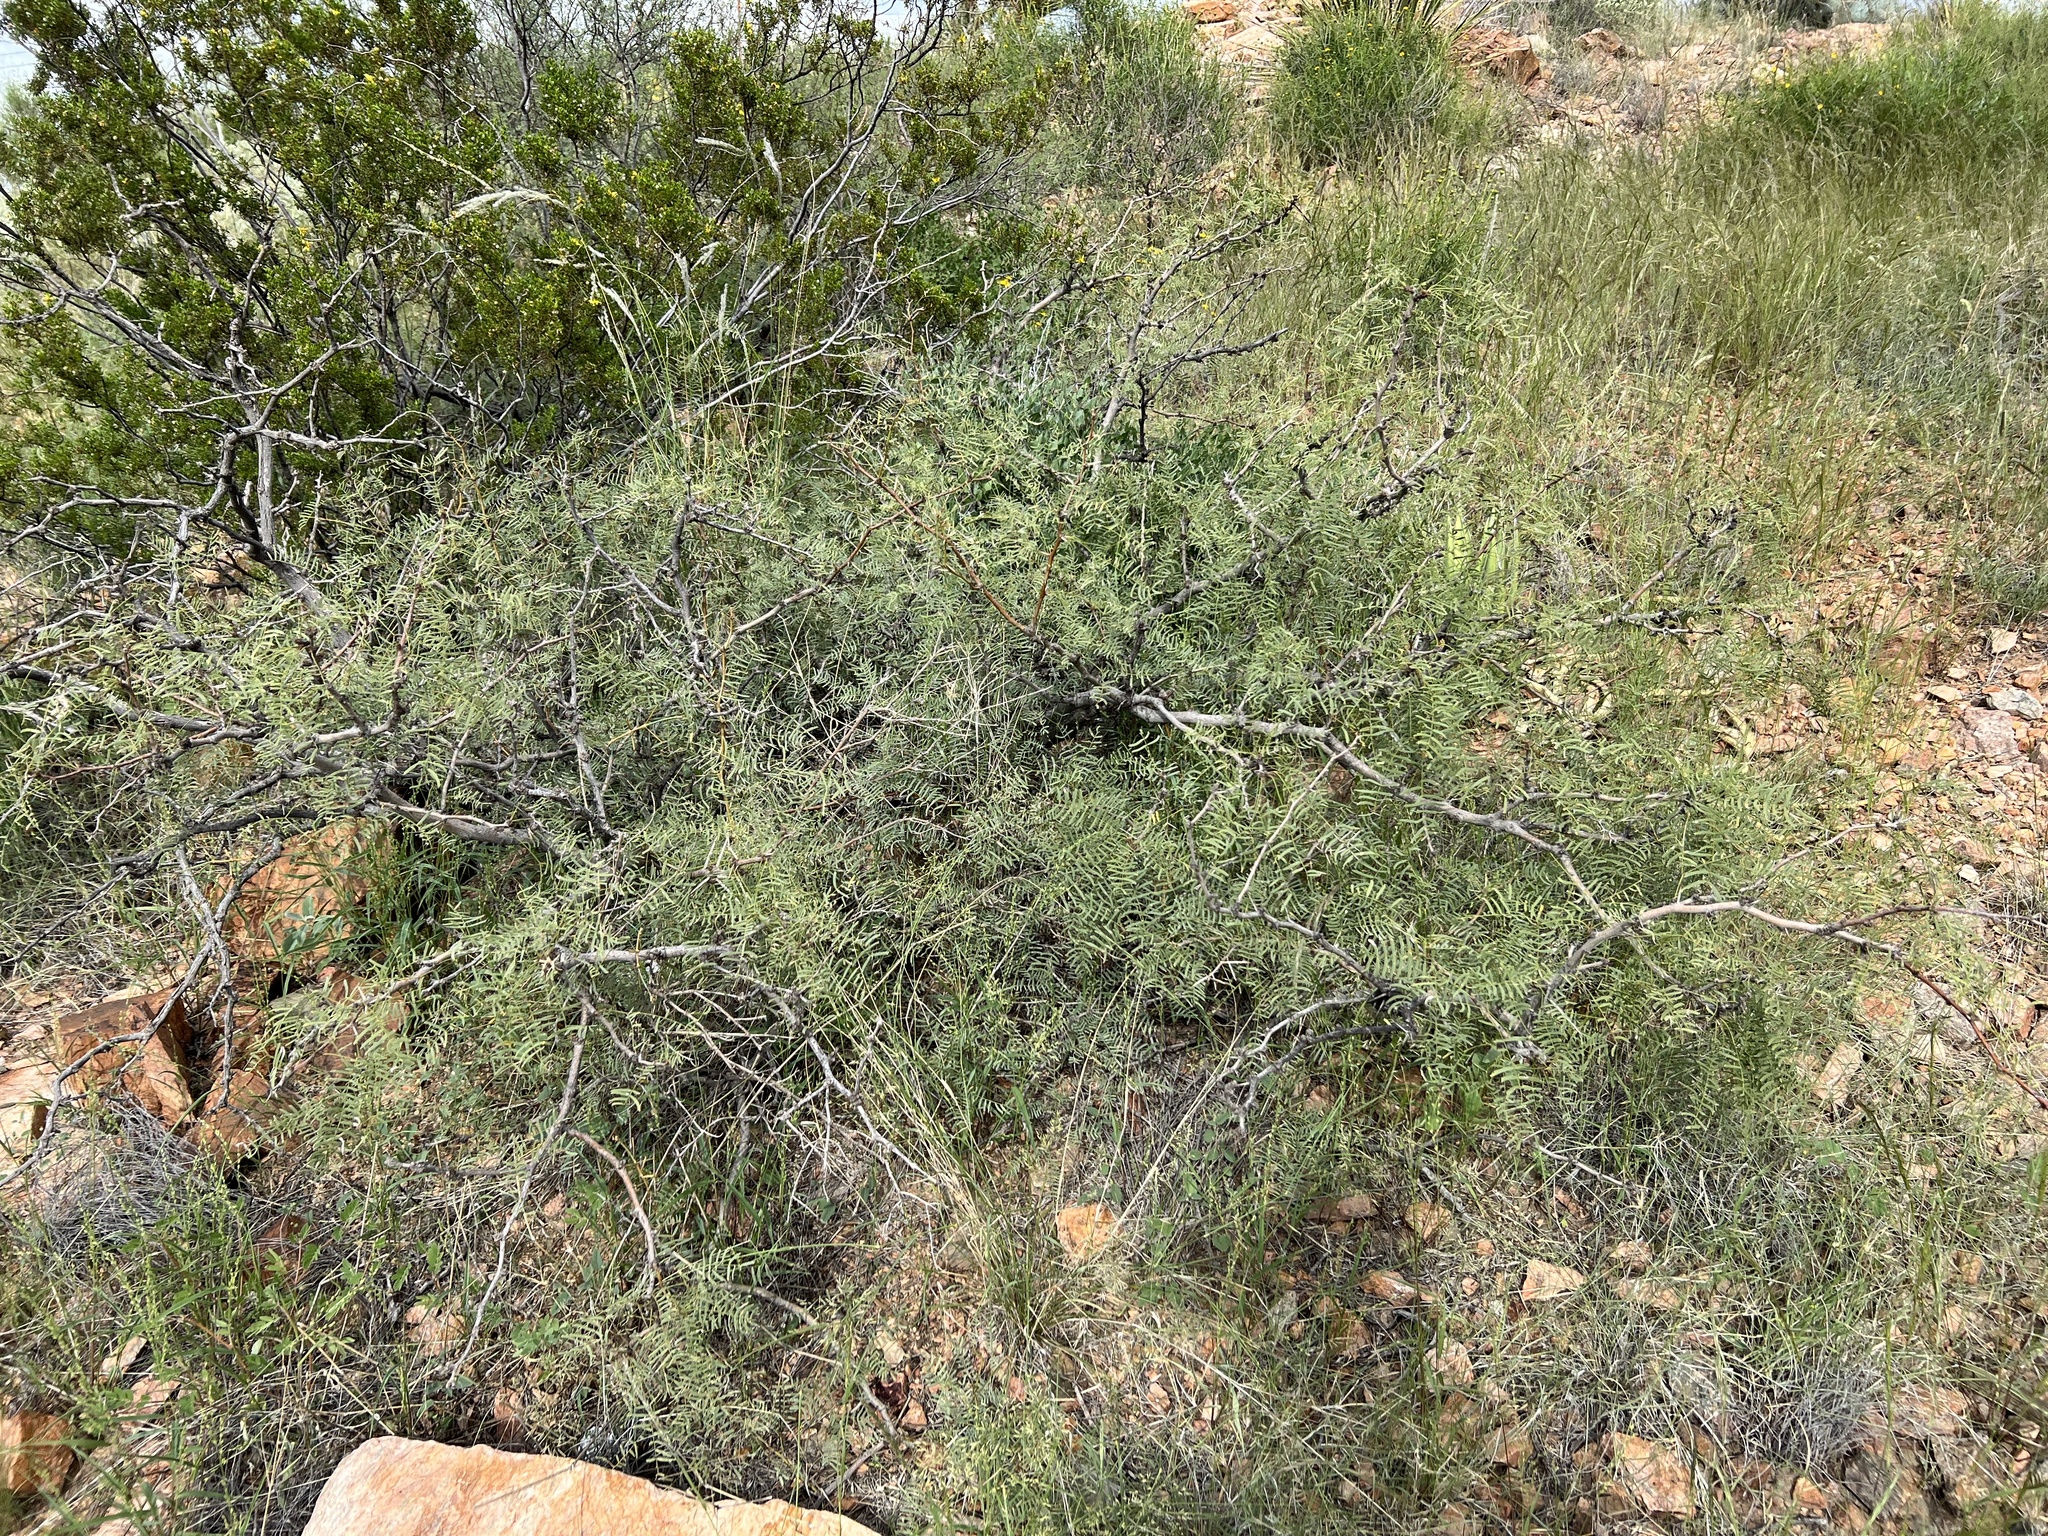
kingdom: Plantae
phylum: Tracheophyta
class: Magnoliopsida
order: Fabales
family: Fabaceae
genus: Prosopis
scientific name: Prosopis pubescens
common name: Screw-bean
